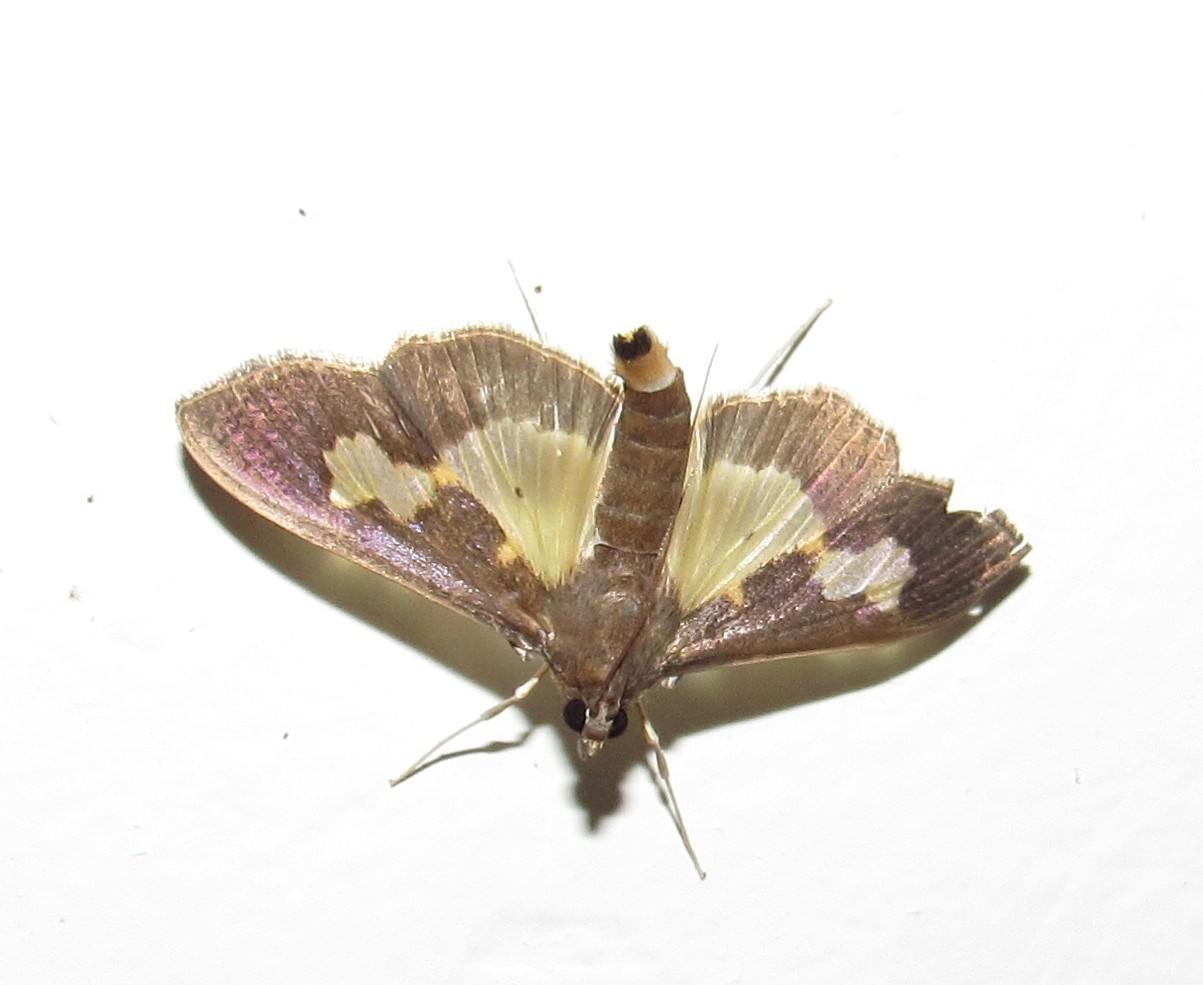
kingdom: Animalia
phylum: Arthropoda
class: Insecta
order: Lepidoptera
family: Crambidae
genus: Cryptographis
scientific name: Cryptographis nitidalis
